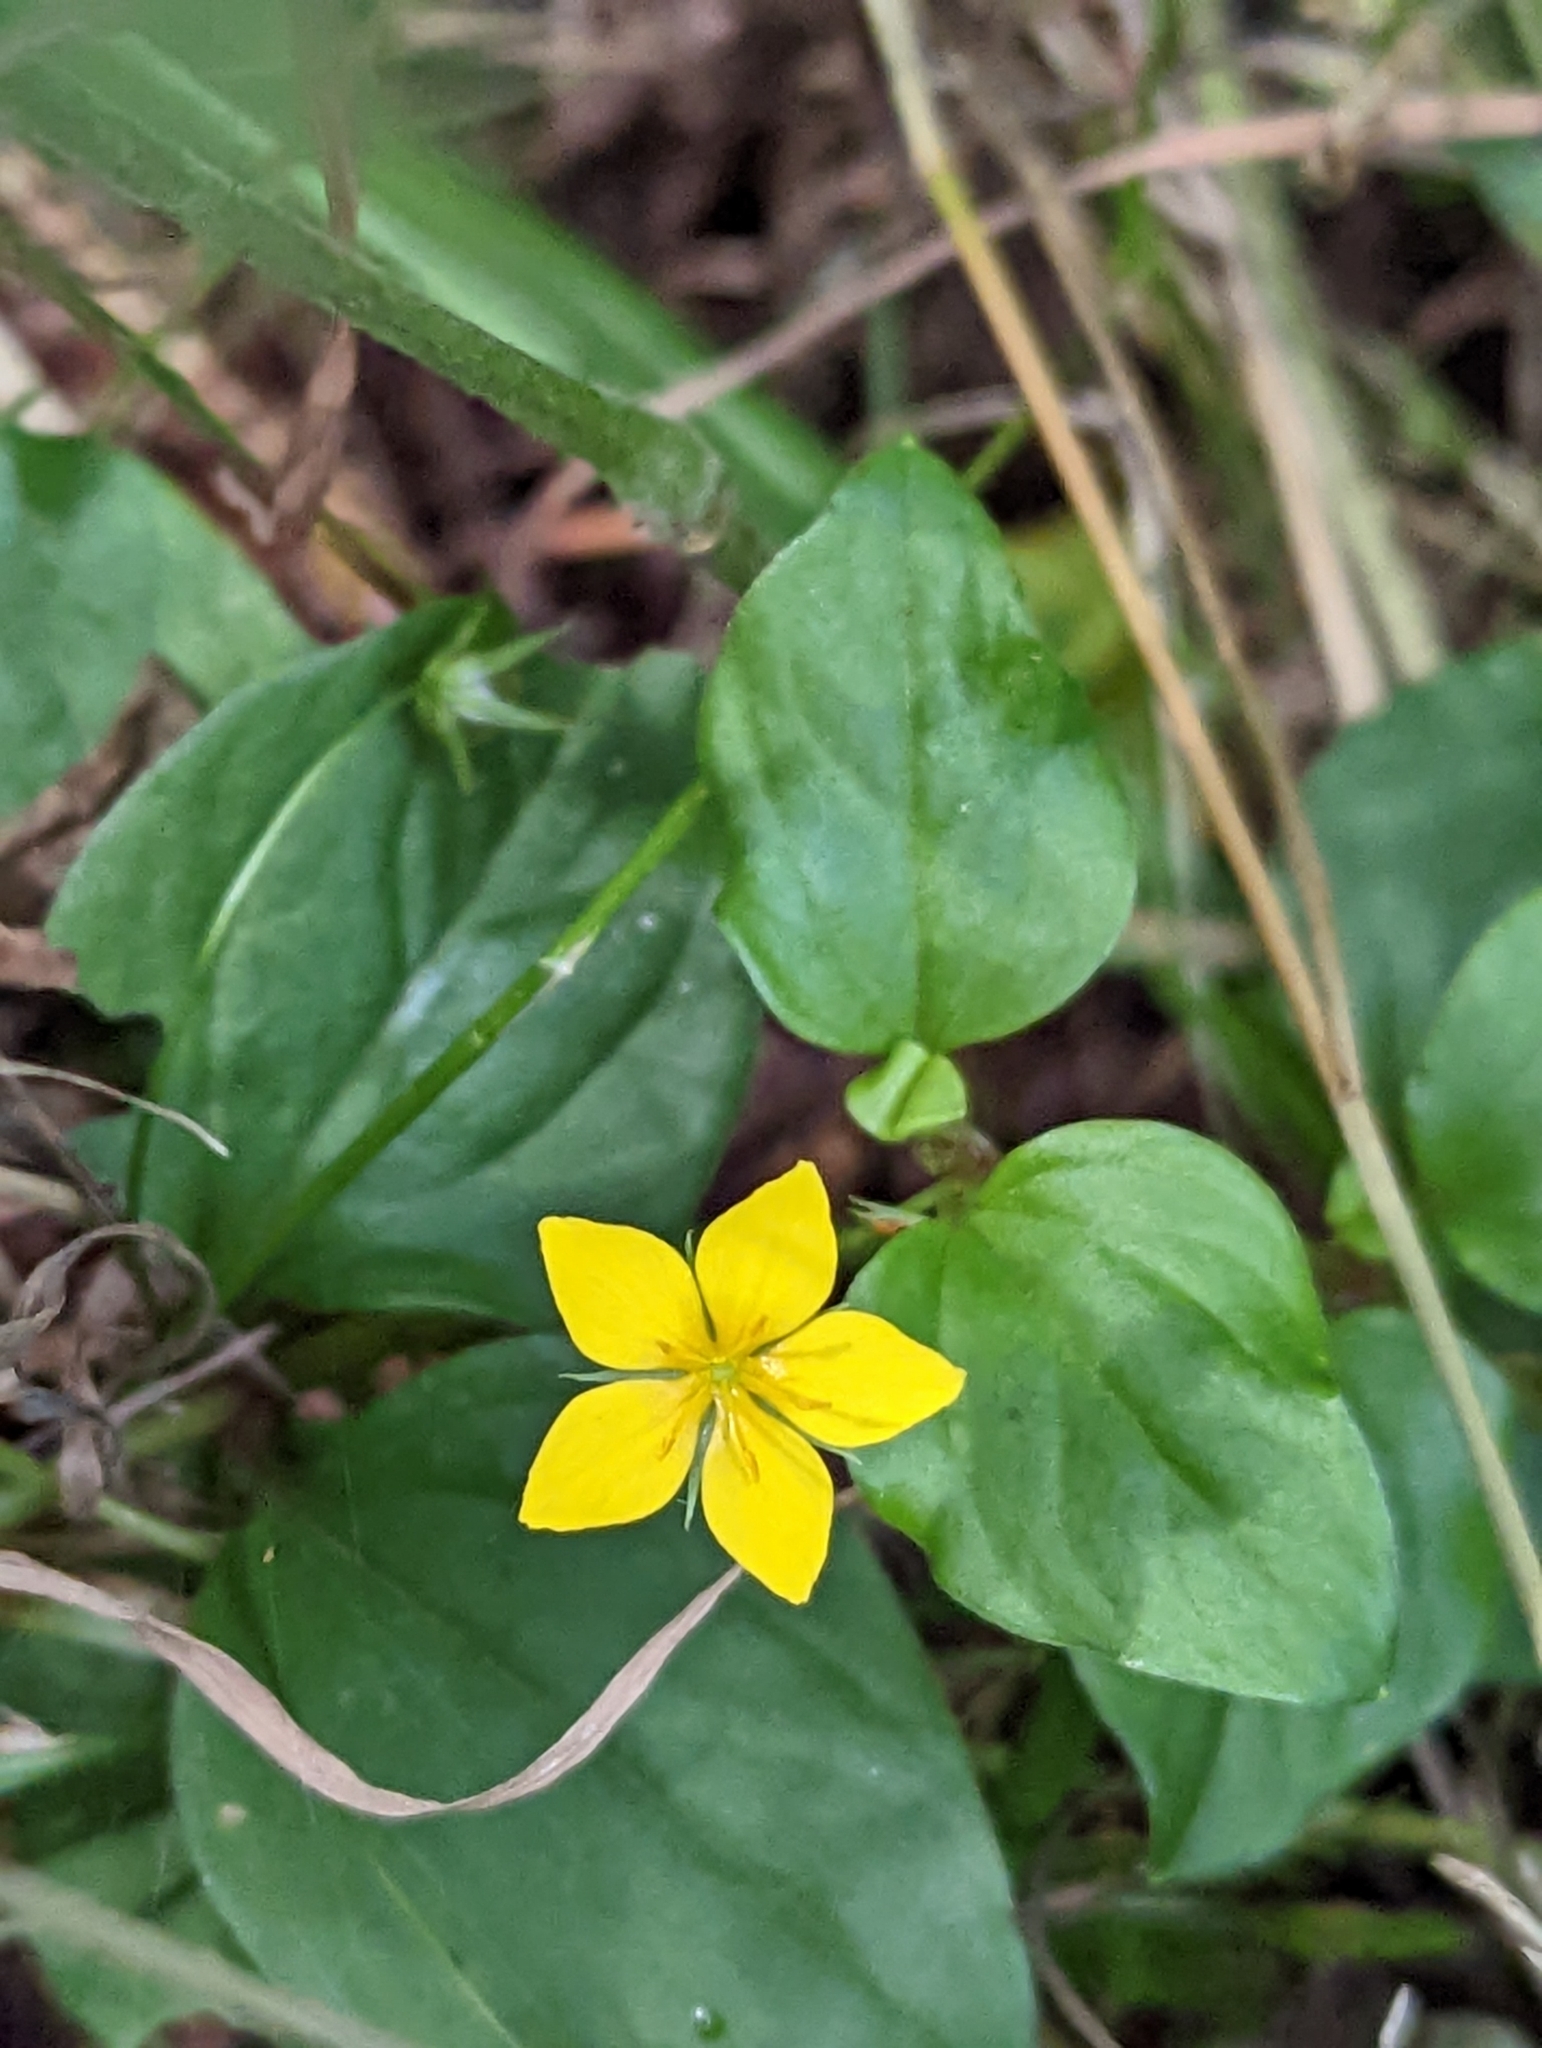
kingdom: Plantae
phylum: Tracheophyta
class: Magnoliopsida
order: Ericales
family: Primulaceae
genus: Lysimachia
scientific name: Lysimachia nemorum
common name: Yellow pimpernel
